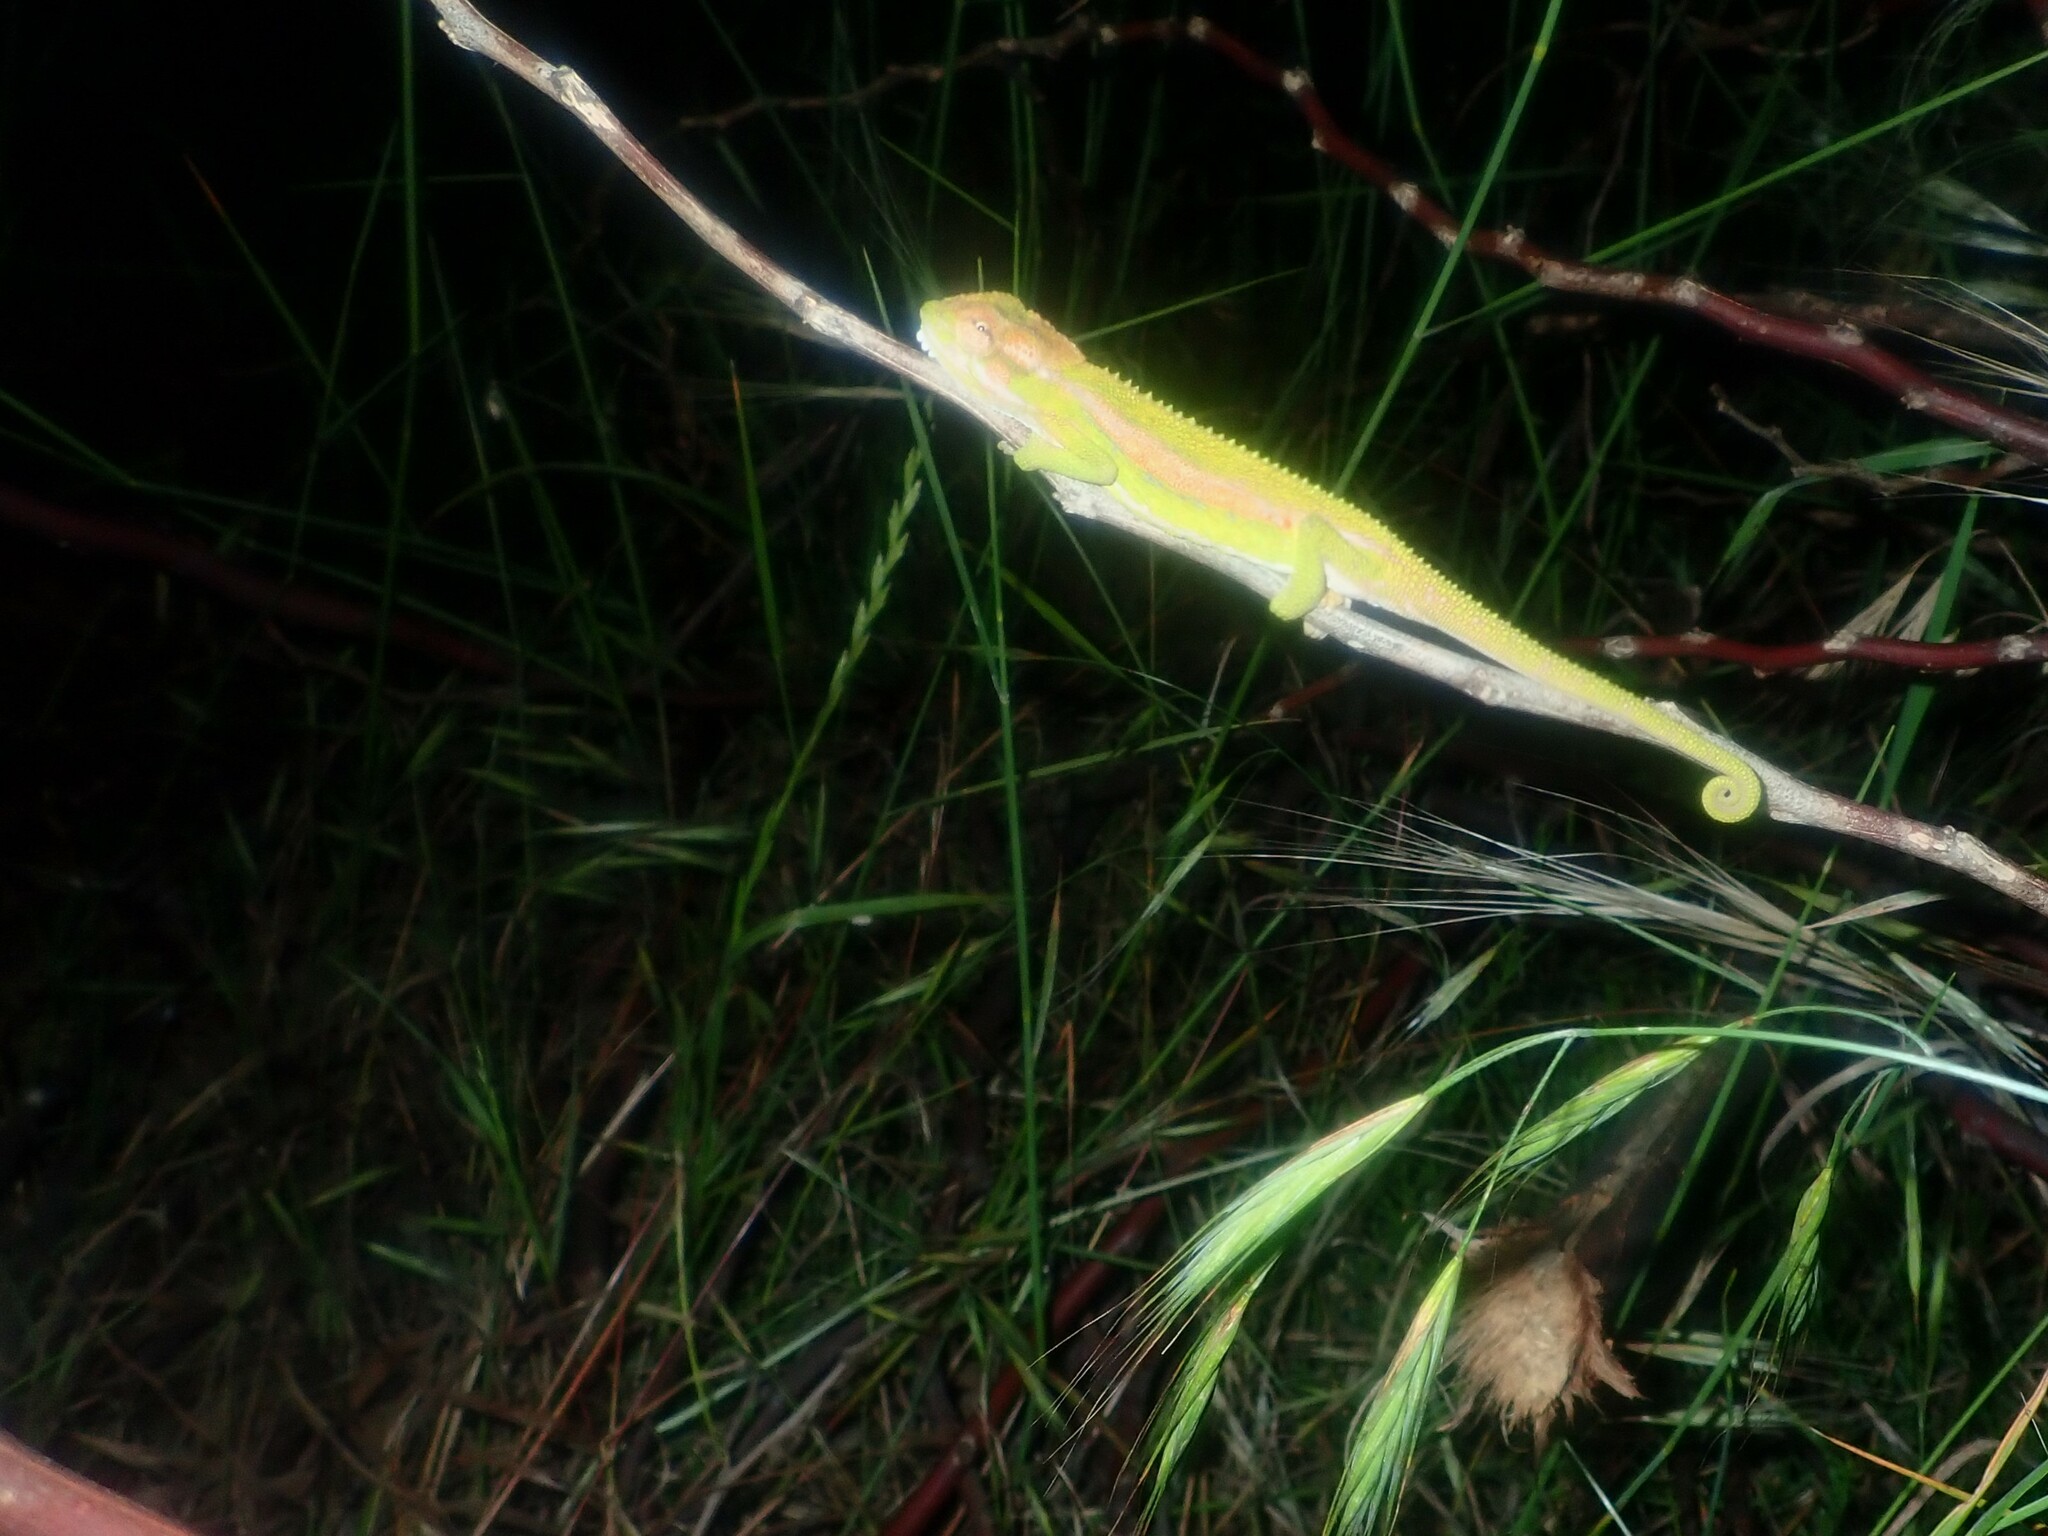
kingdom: Animalia
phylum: Chordata
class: Squamata
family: Chamaeleonidae
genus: Bradypodion
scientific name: Bradypodion pumilum
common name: Cape dwarf chameleon
